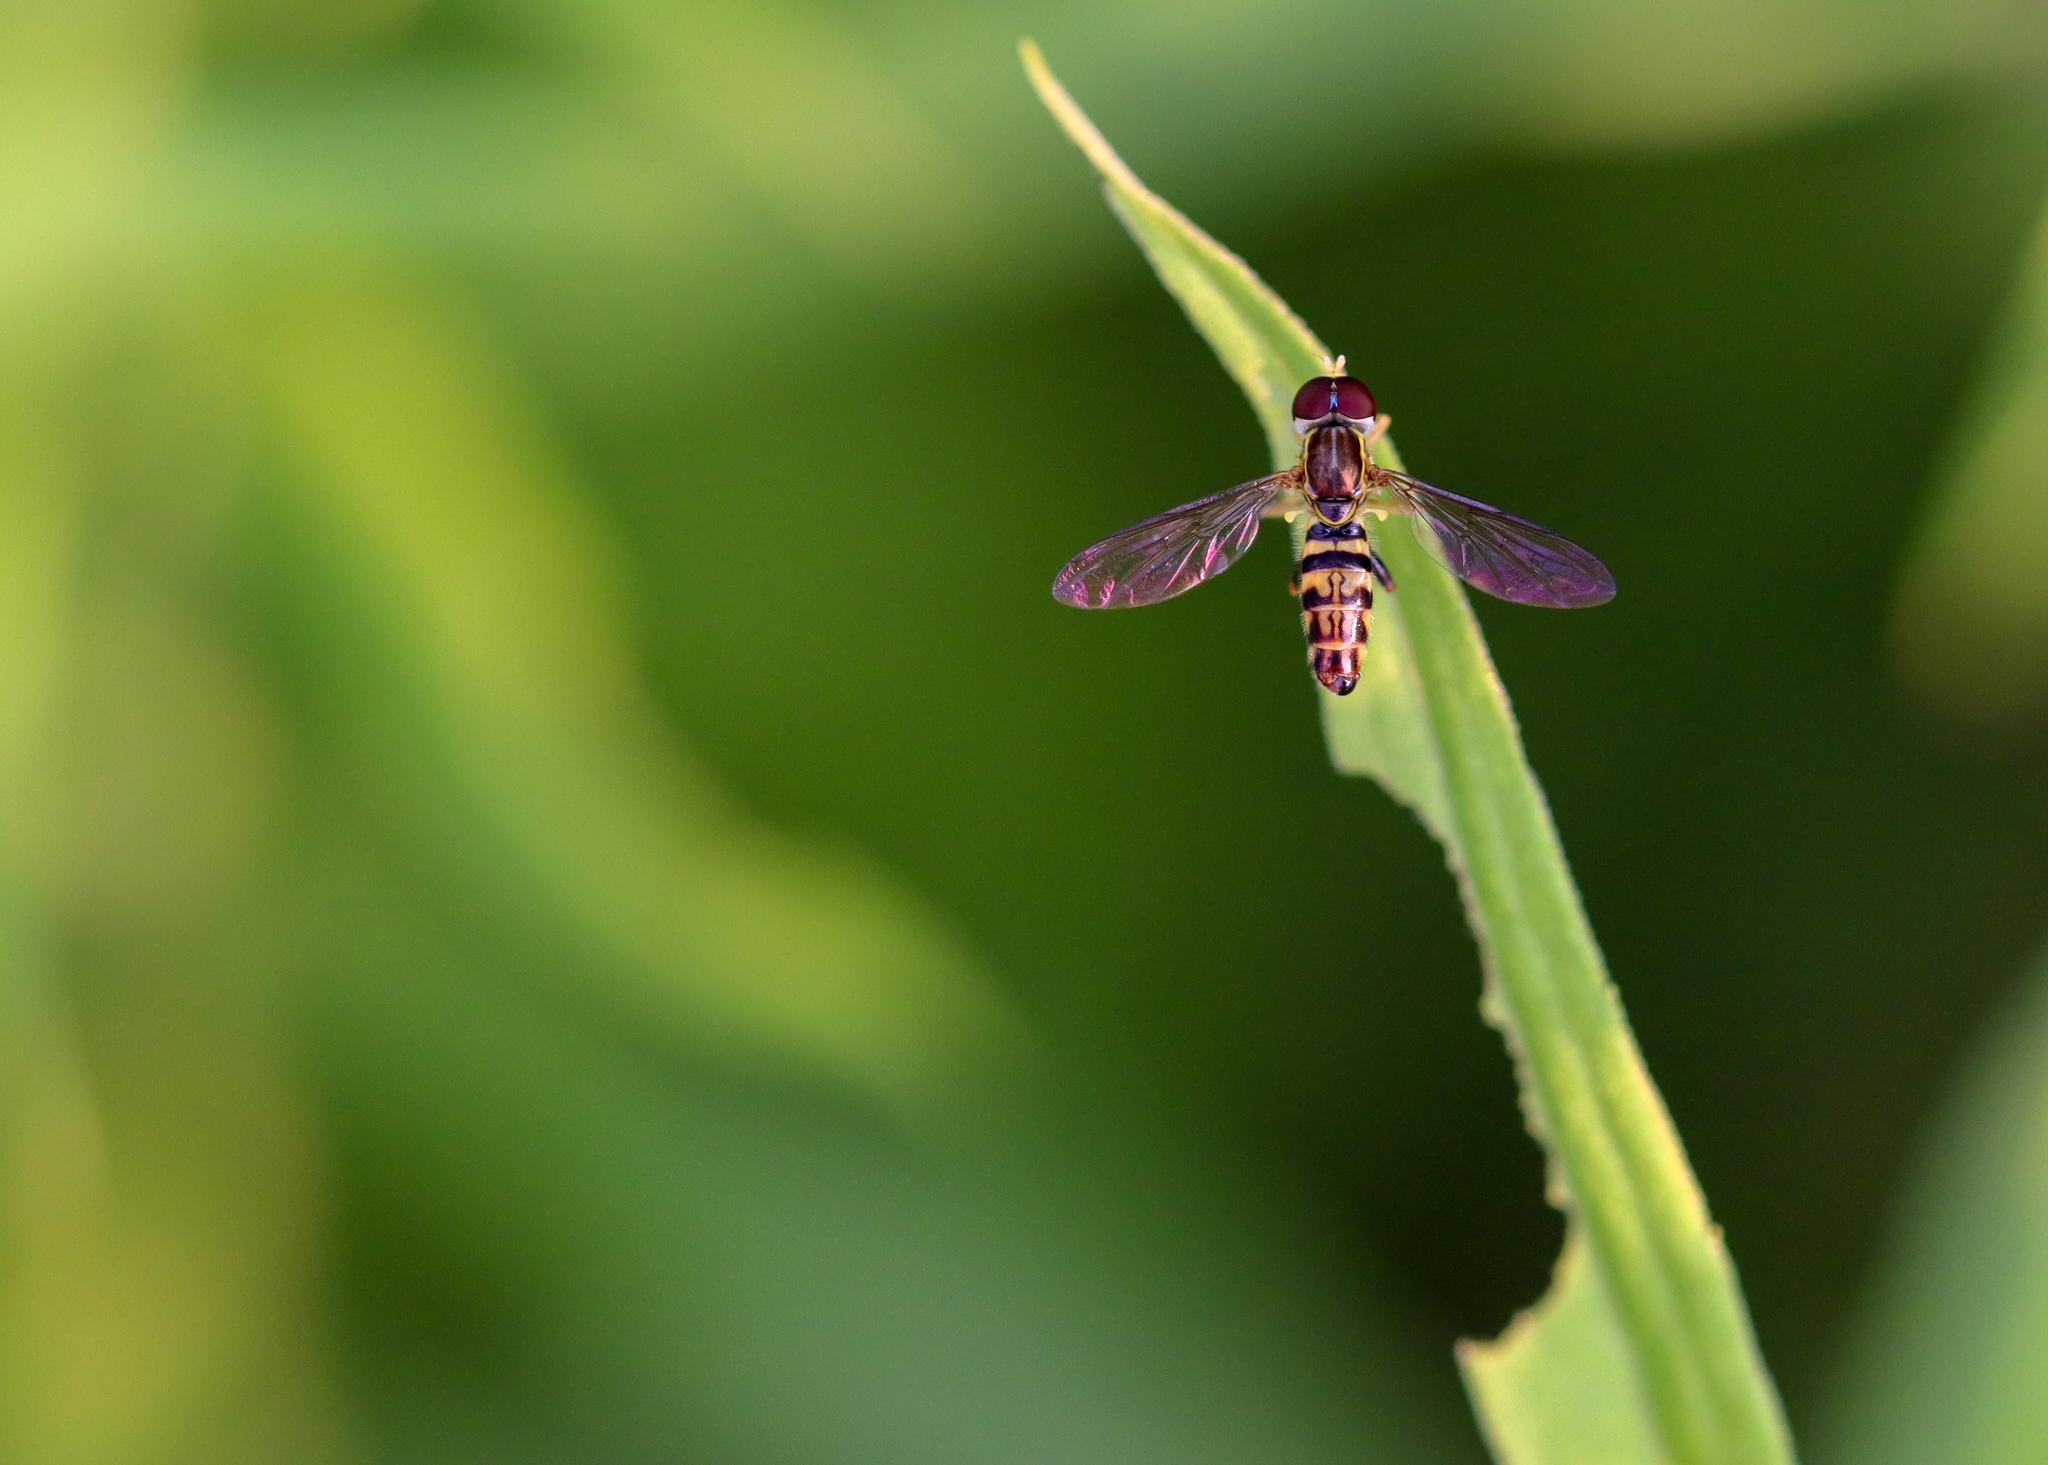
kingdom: Animalia
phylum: Arthropoda
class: Insecta
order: Diptera
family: Syrphidae
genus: Toxomerus
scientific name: Toxomerus geminatus
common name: Eastern calligrapher
